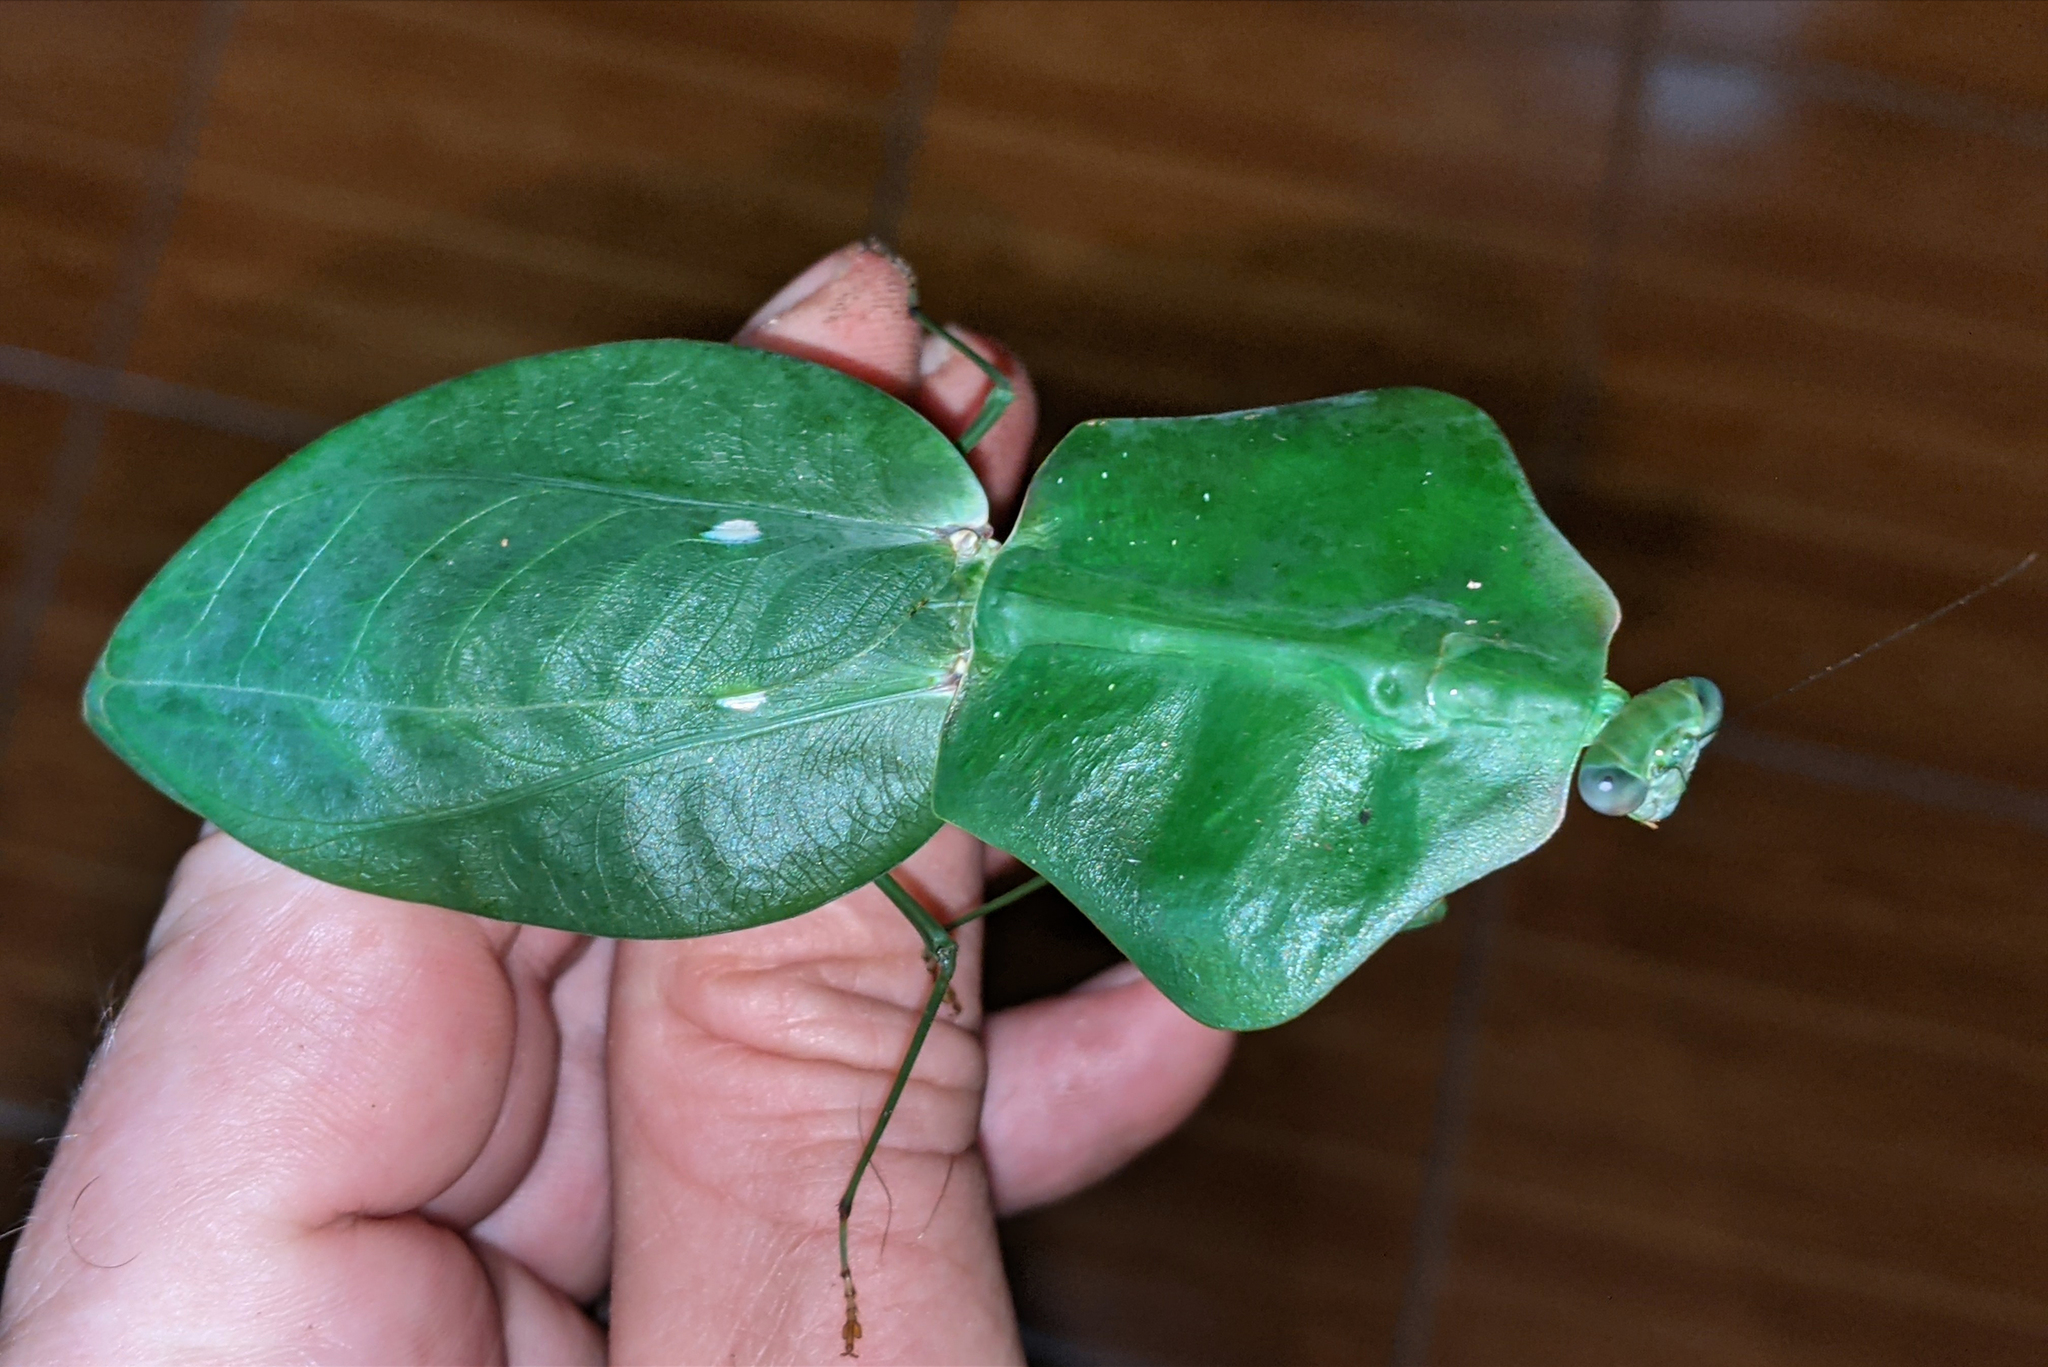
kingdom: Animalia
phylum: Arthropoda
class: Insecta
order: Mantodea
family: Mantidae
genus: Choeradodis
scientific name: Choeradodis stalii
